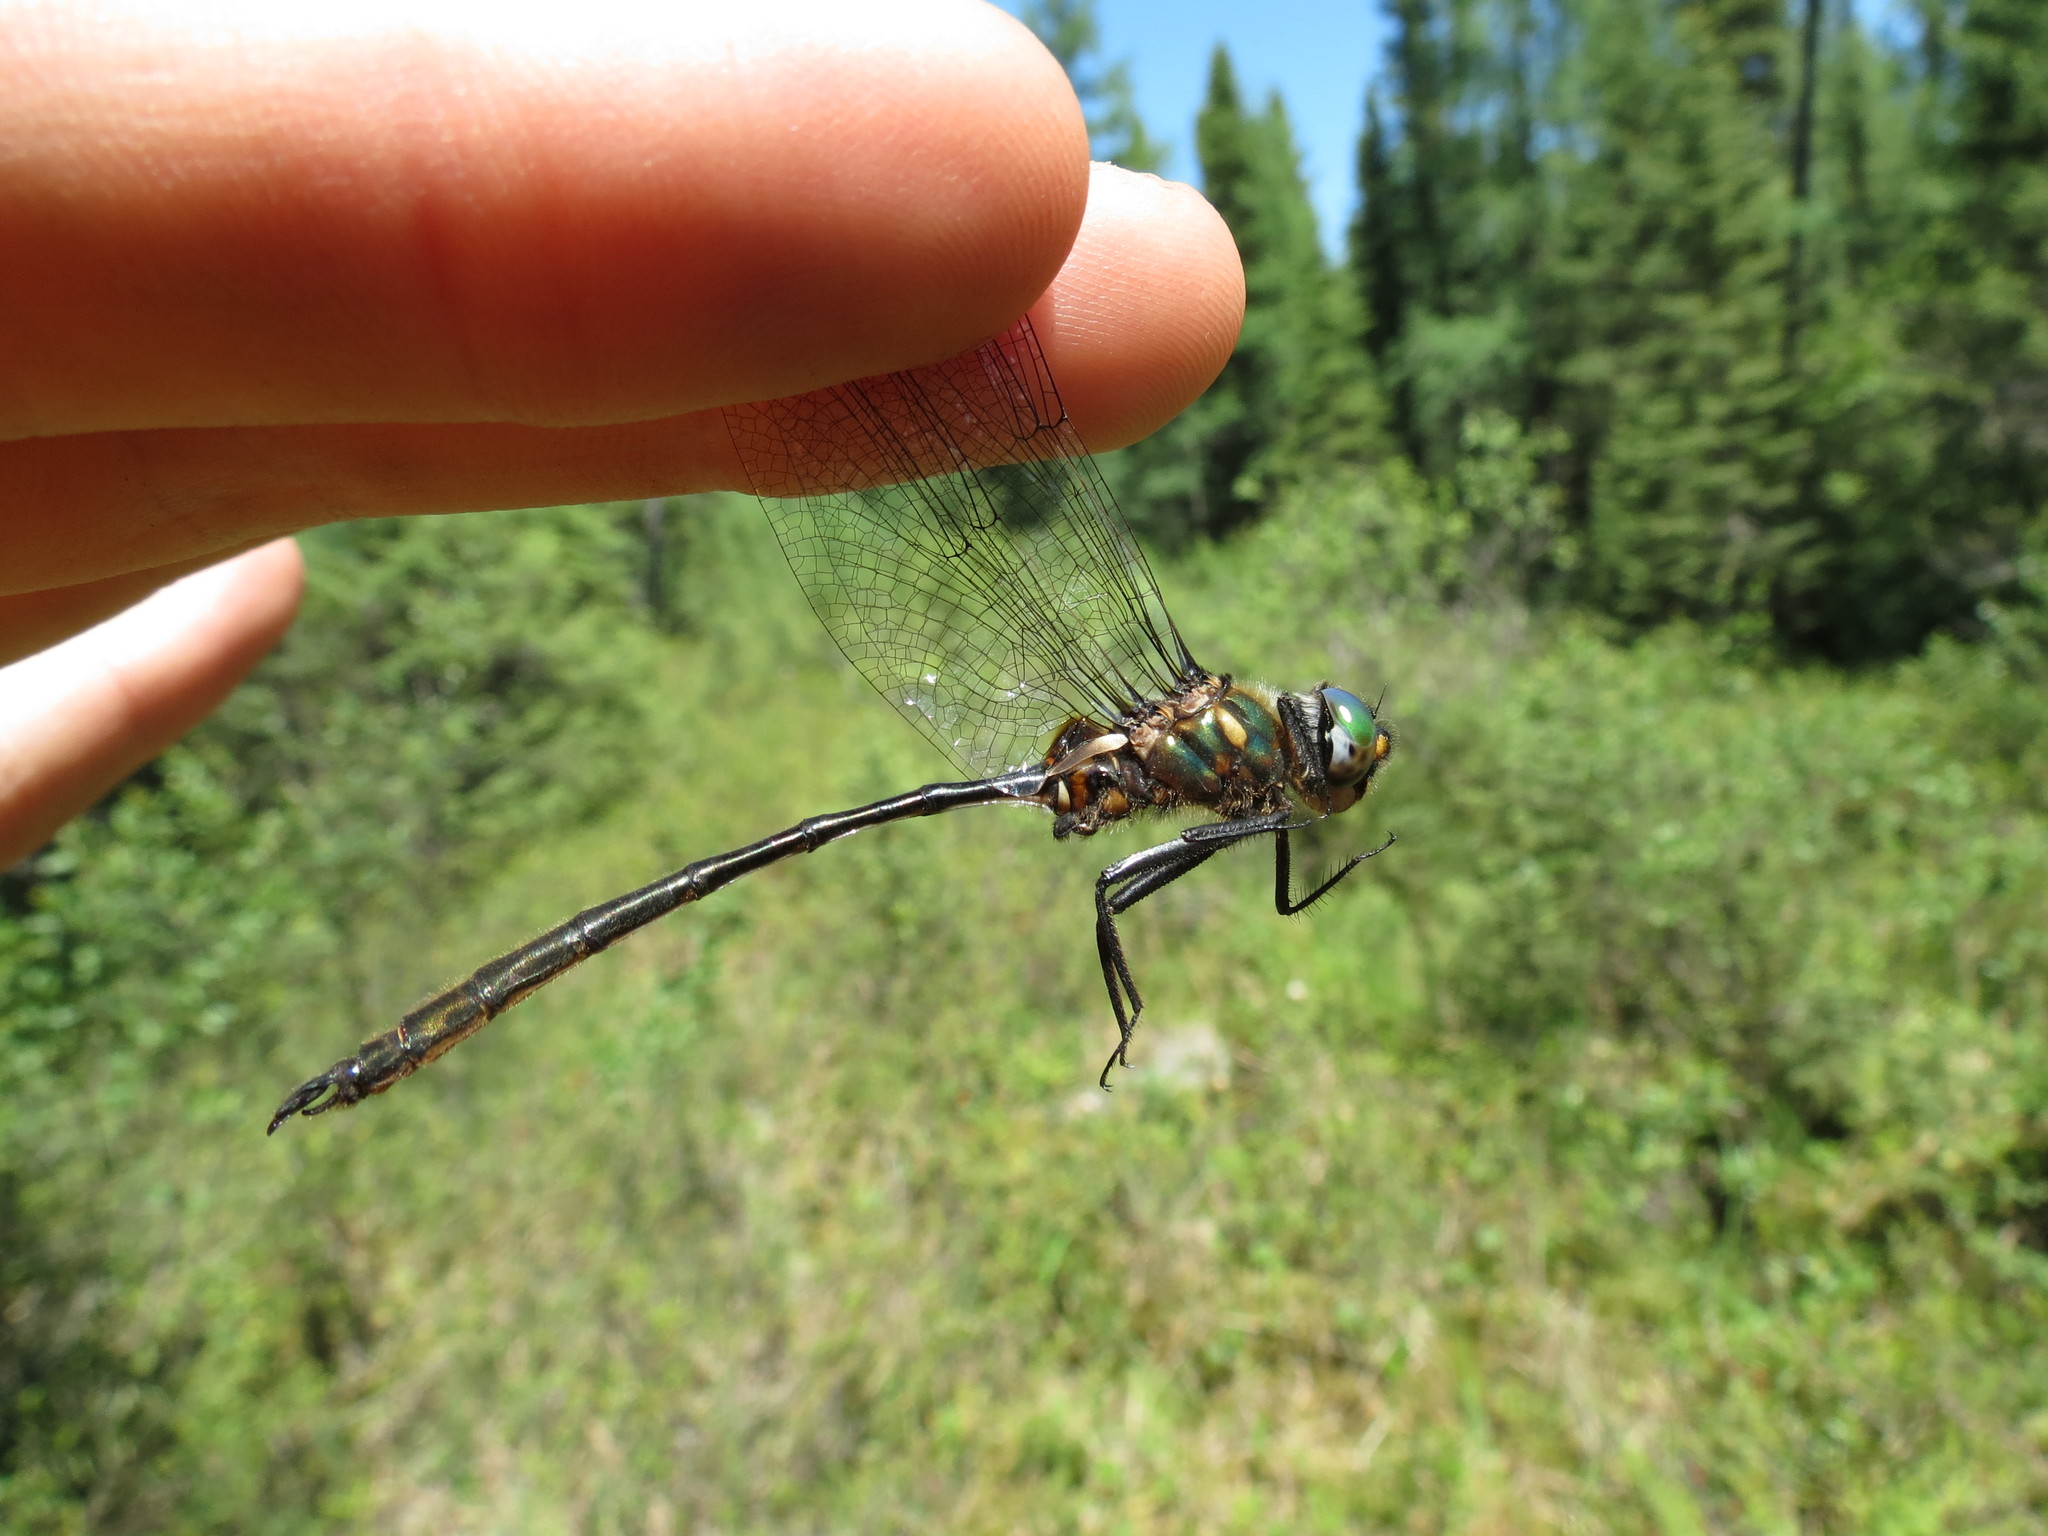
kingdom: Animalia
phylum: Arthropoda
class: Insecta
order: Odonata
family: Corduliidae
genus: Somatochlora
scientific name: Somatochlora franklini
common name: Delicate emerald
